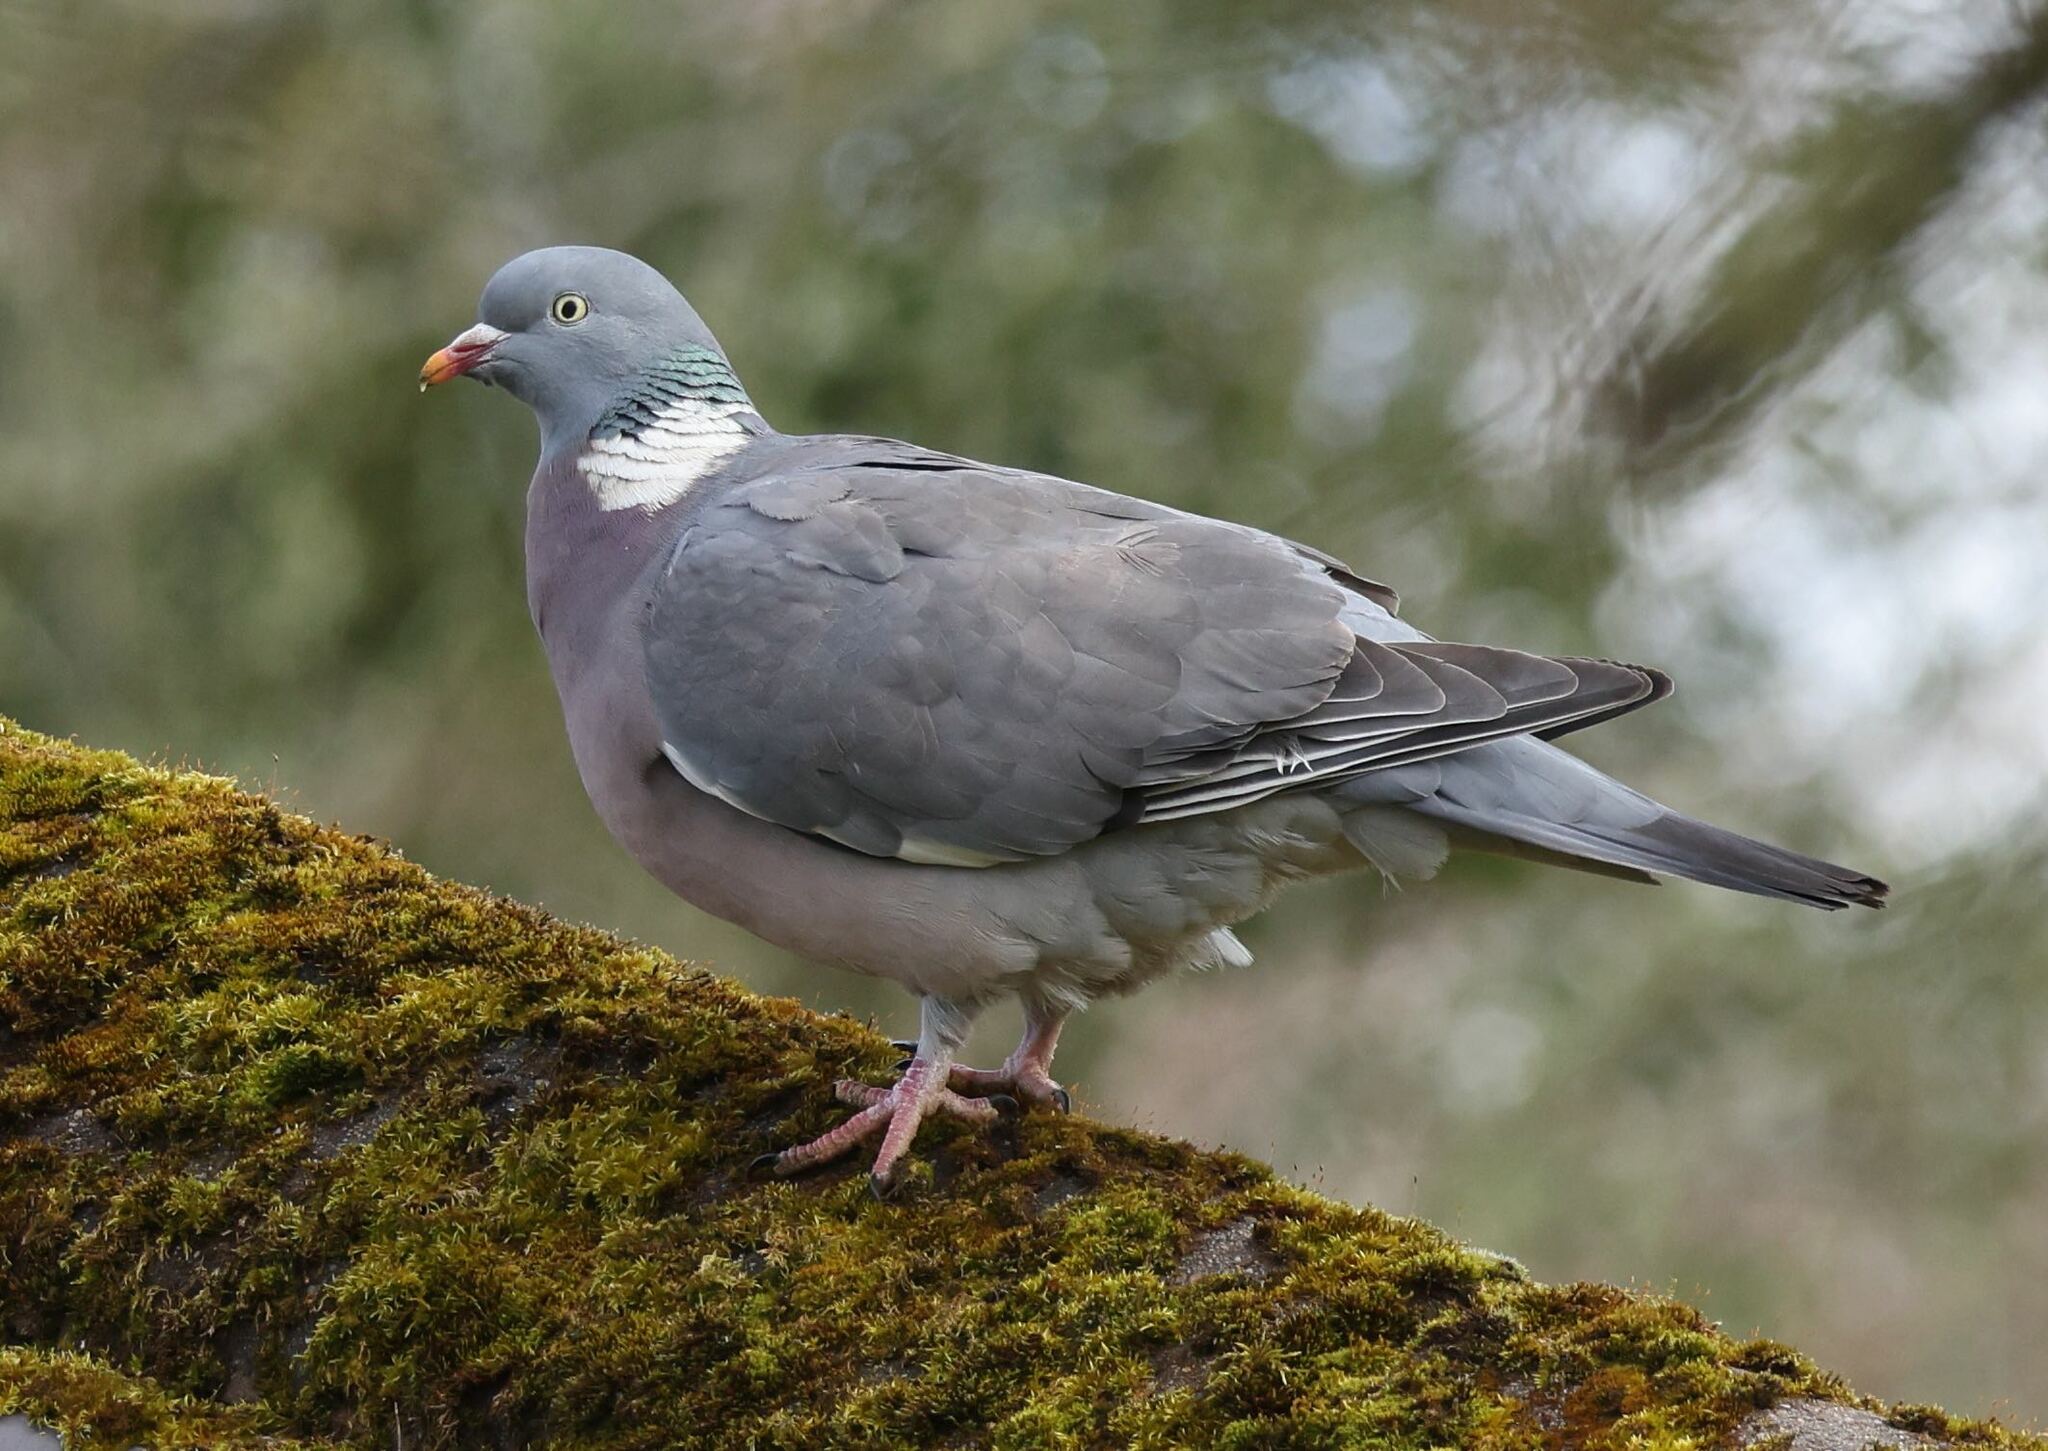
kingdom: Animalia
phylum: Chordata
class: Aves
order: Columbiformes
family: Columbidae
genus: Columba
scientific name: Columba palumbus
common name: Common wood pigeon
